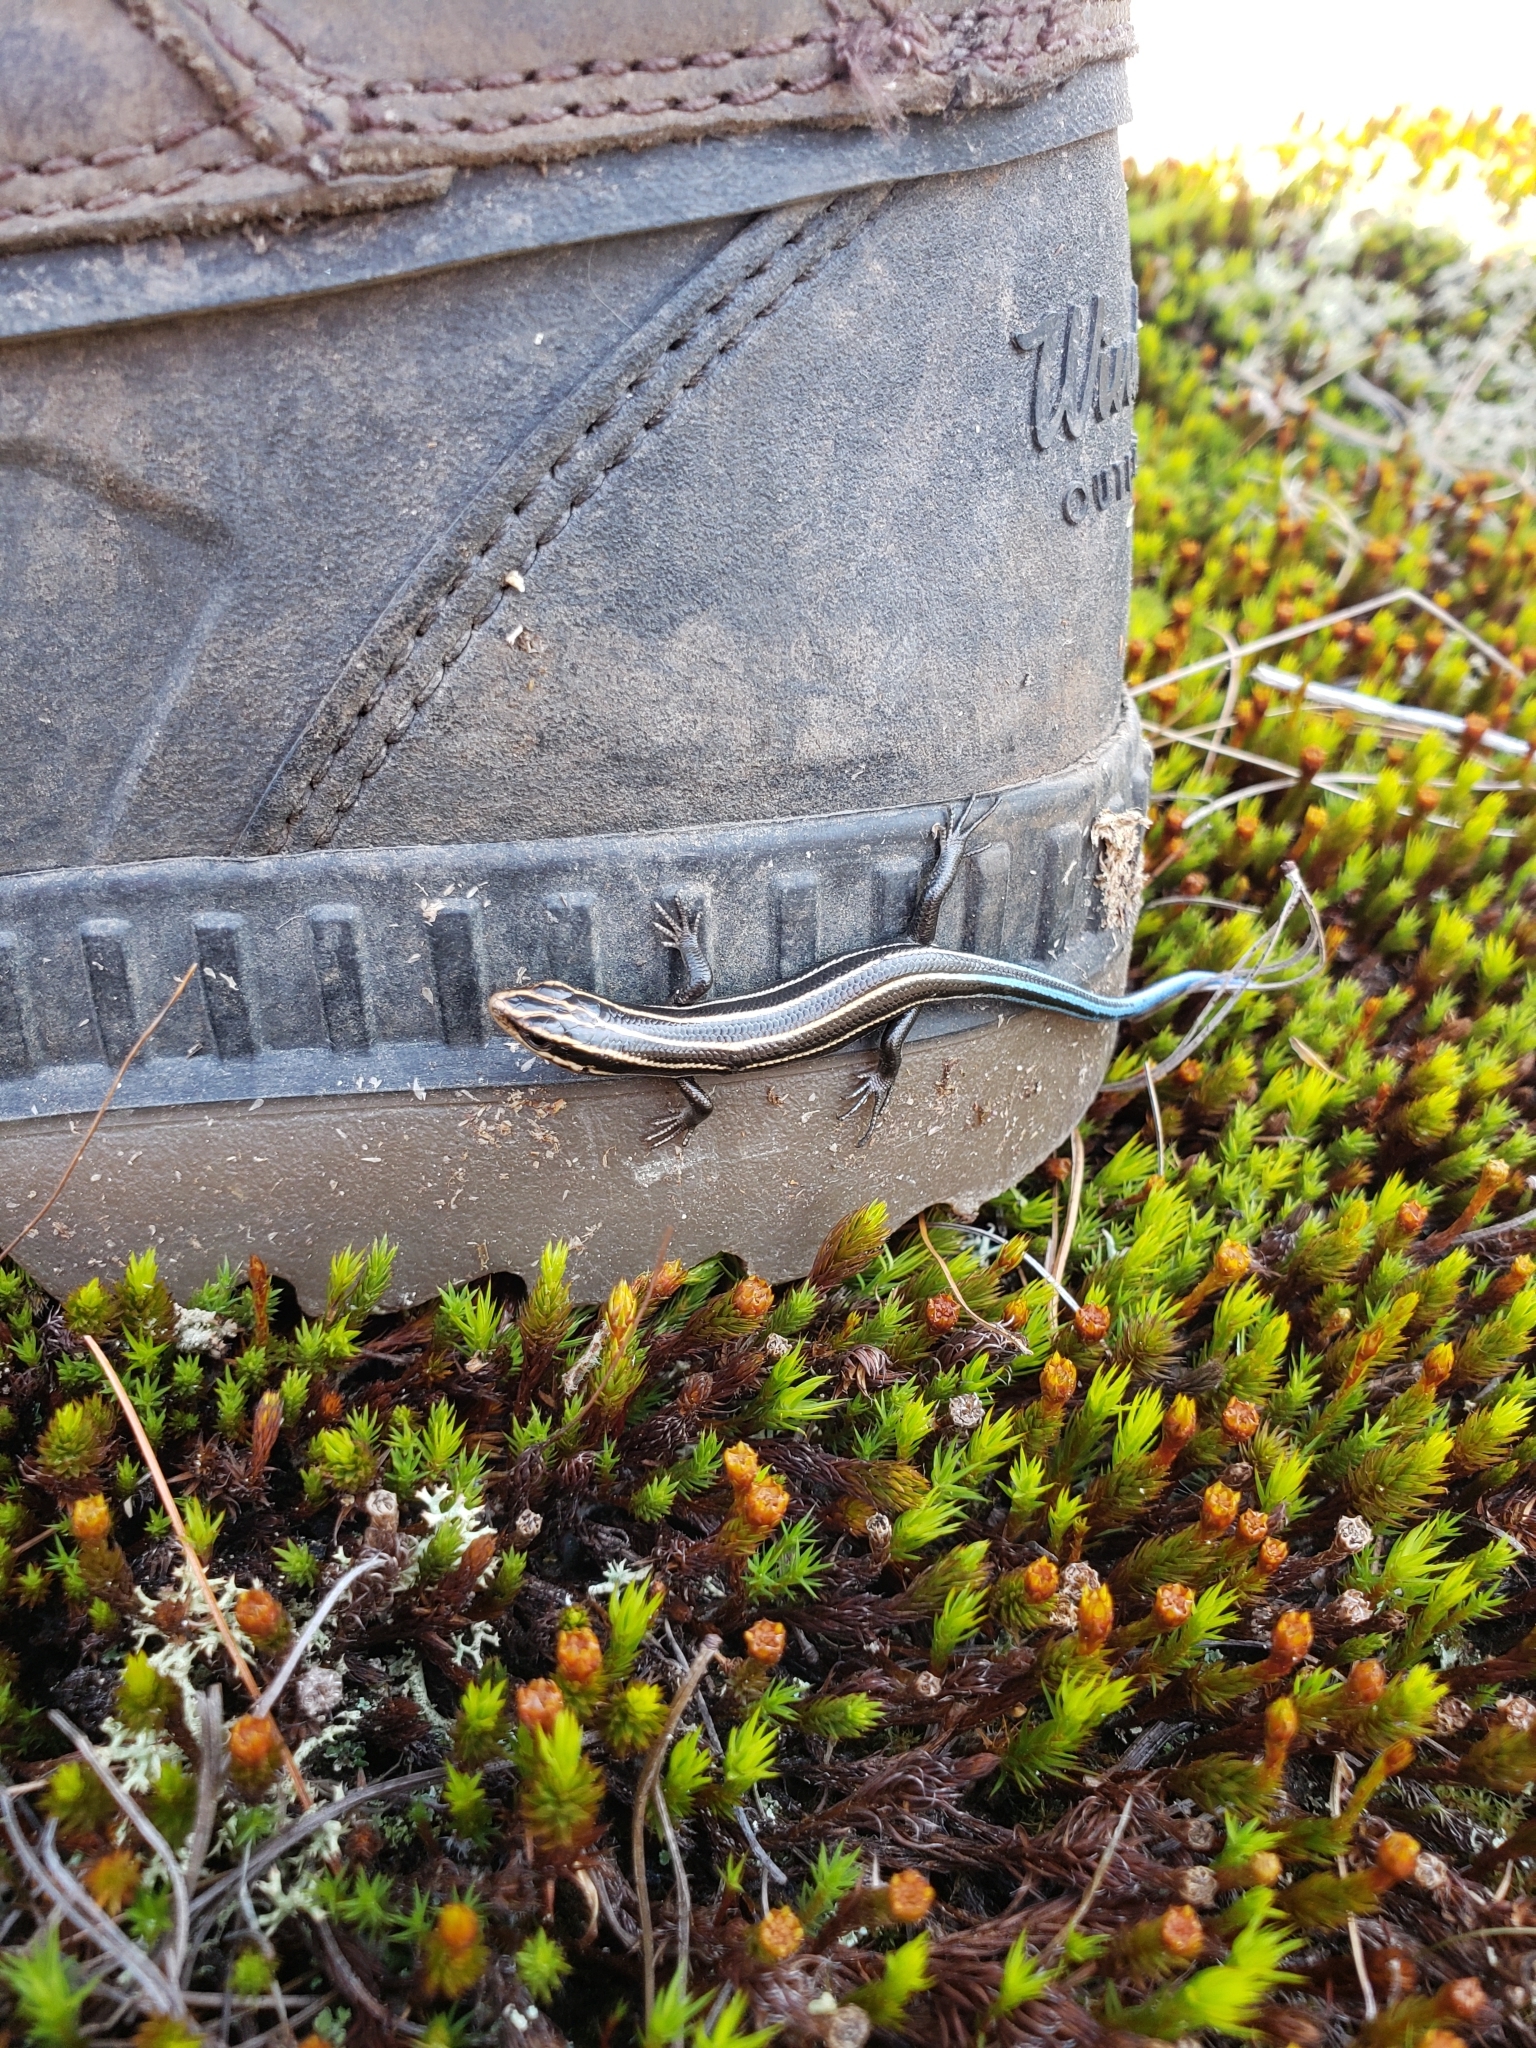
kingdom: Animalia
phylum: Chordata
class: Squamata
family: Scincidae
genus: Plestiodon
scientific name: Plestiodon fasciatus
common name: Five-lined skink
